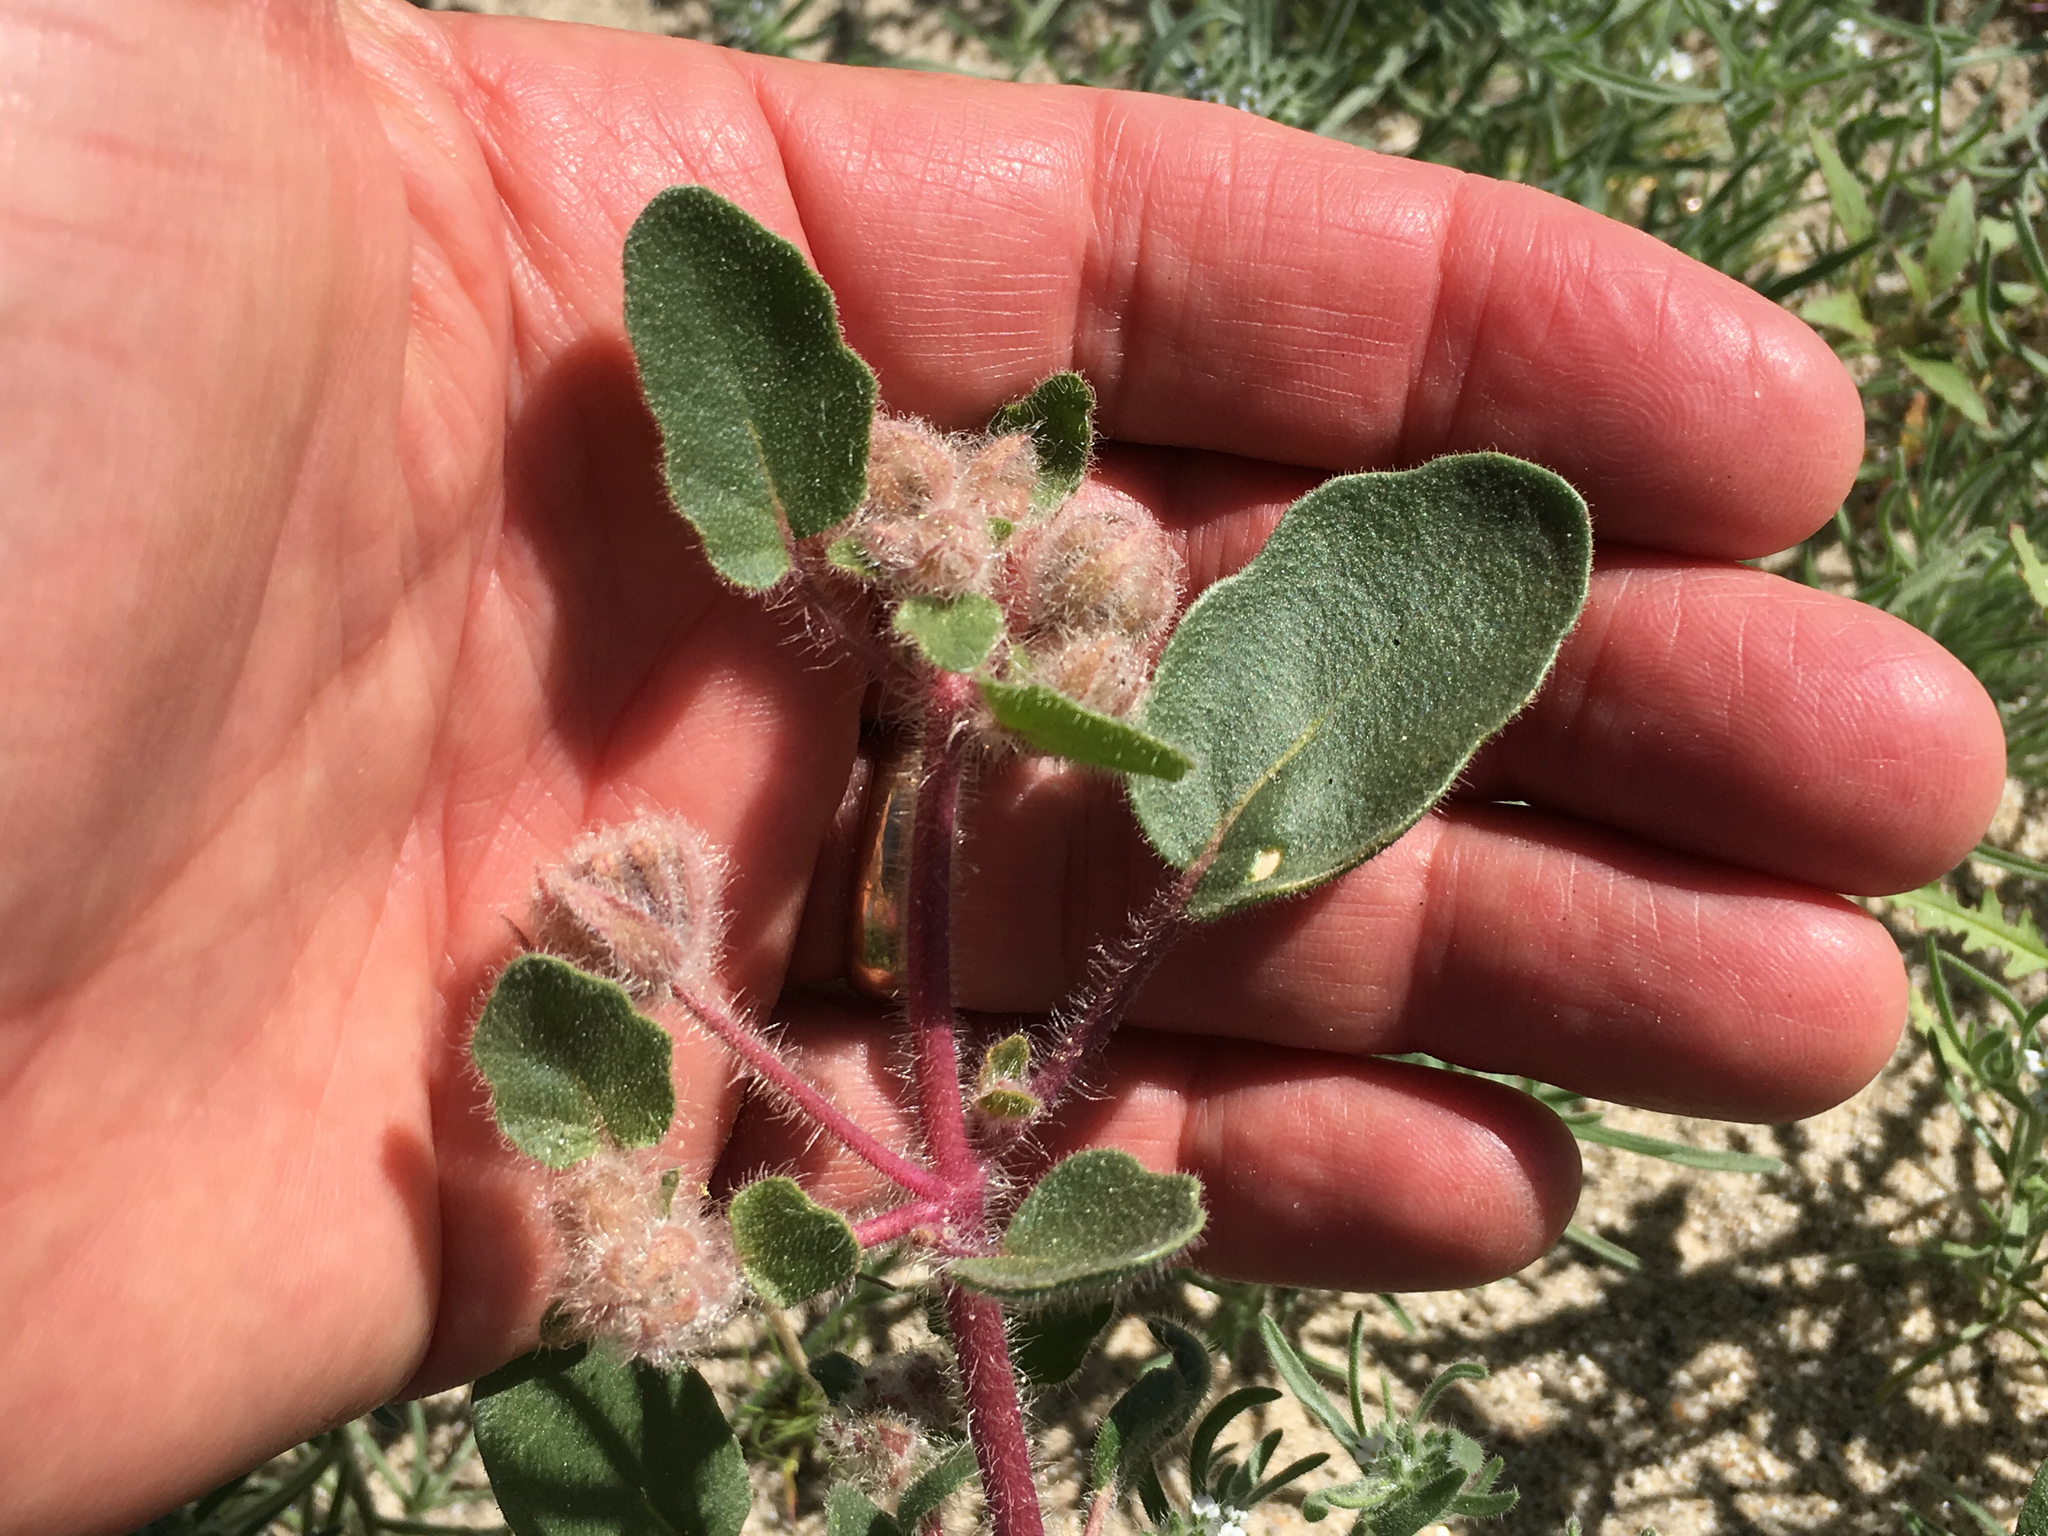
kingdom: Plantae
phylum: Tracheophyta
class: Magnoliopsida
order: Caryophyllales
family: Nyctaginaceae
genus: Abronia
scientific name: Abronia villosa
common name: Desert sand-verbena
